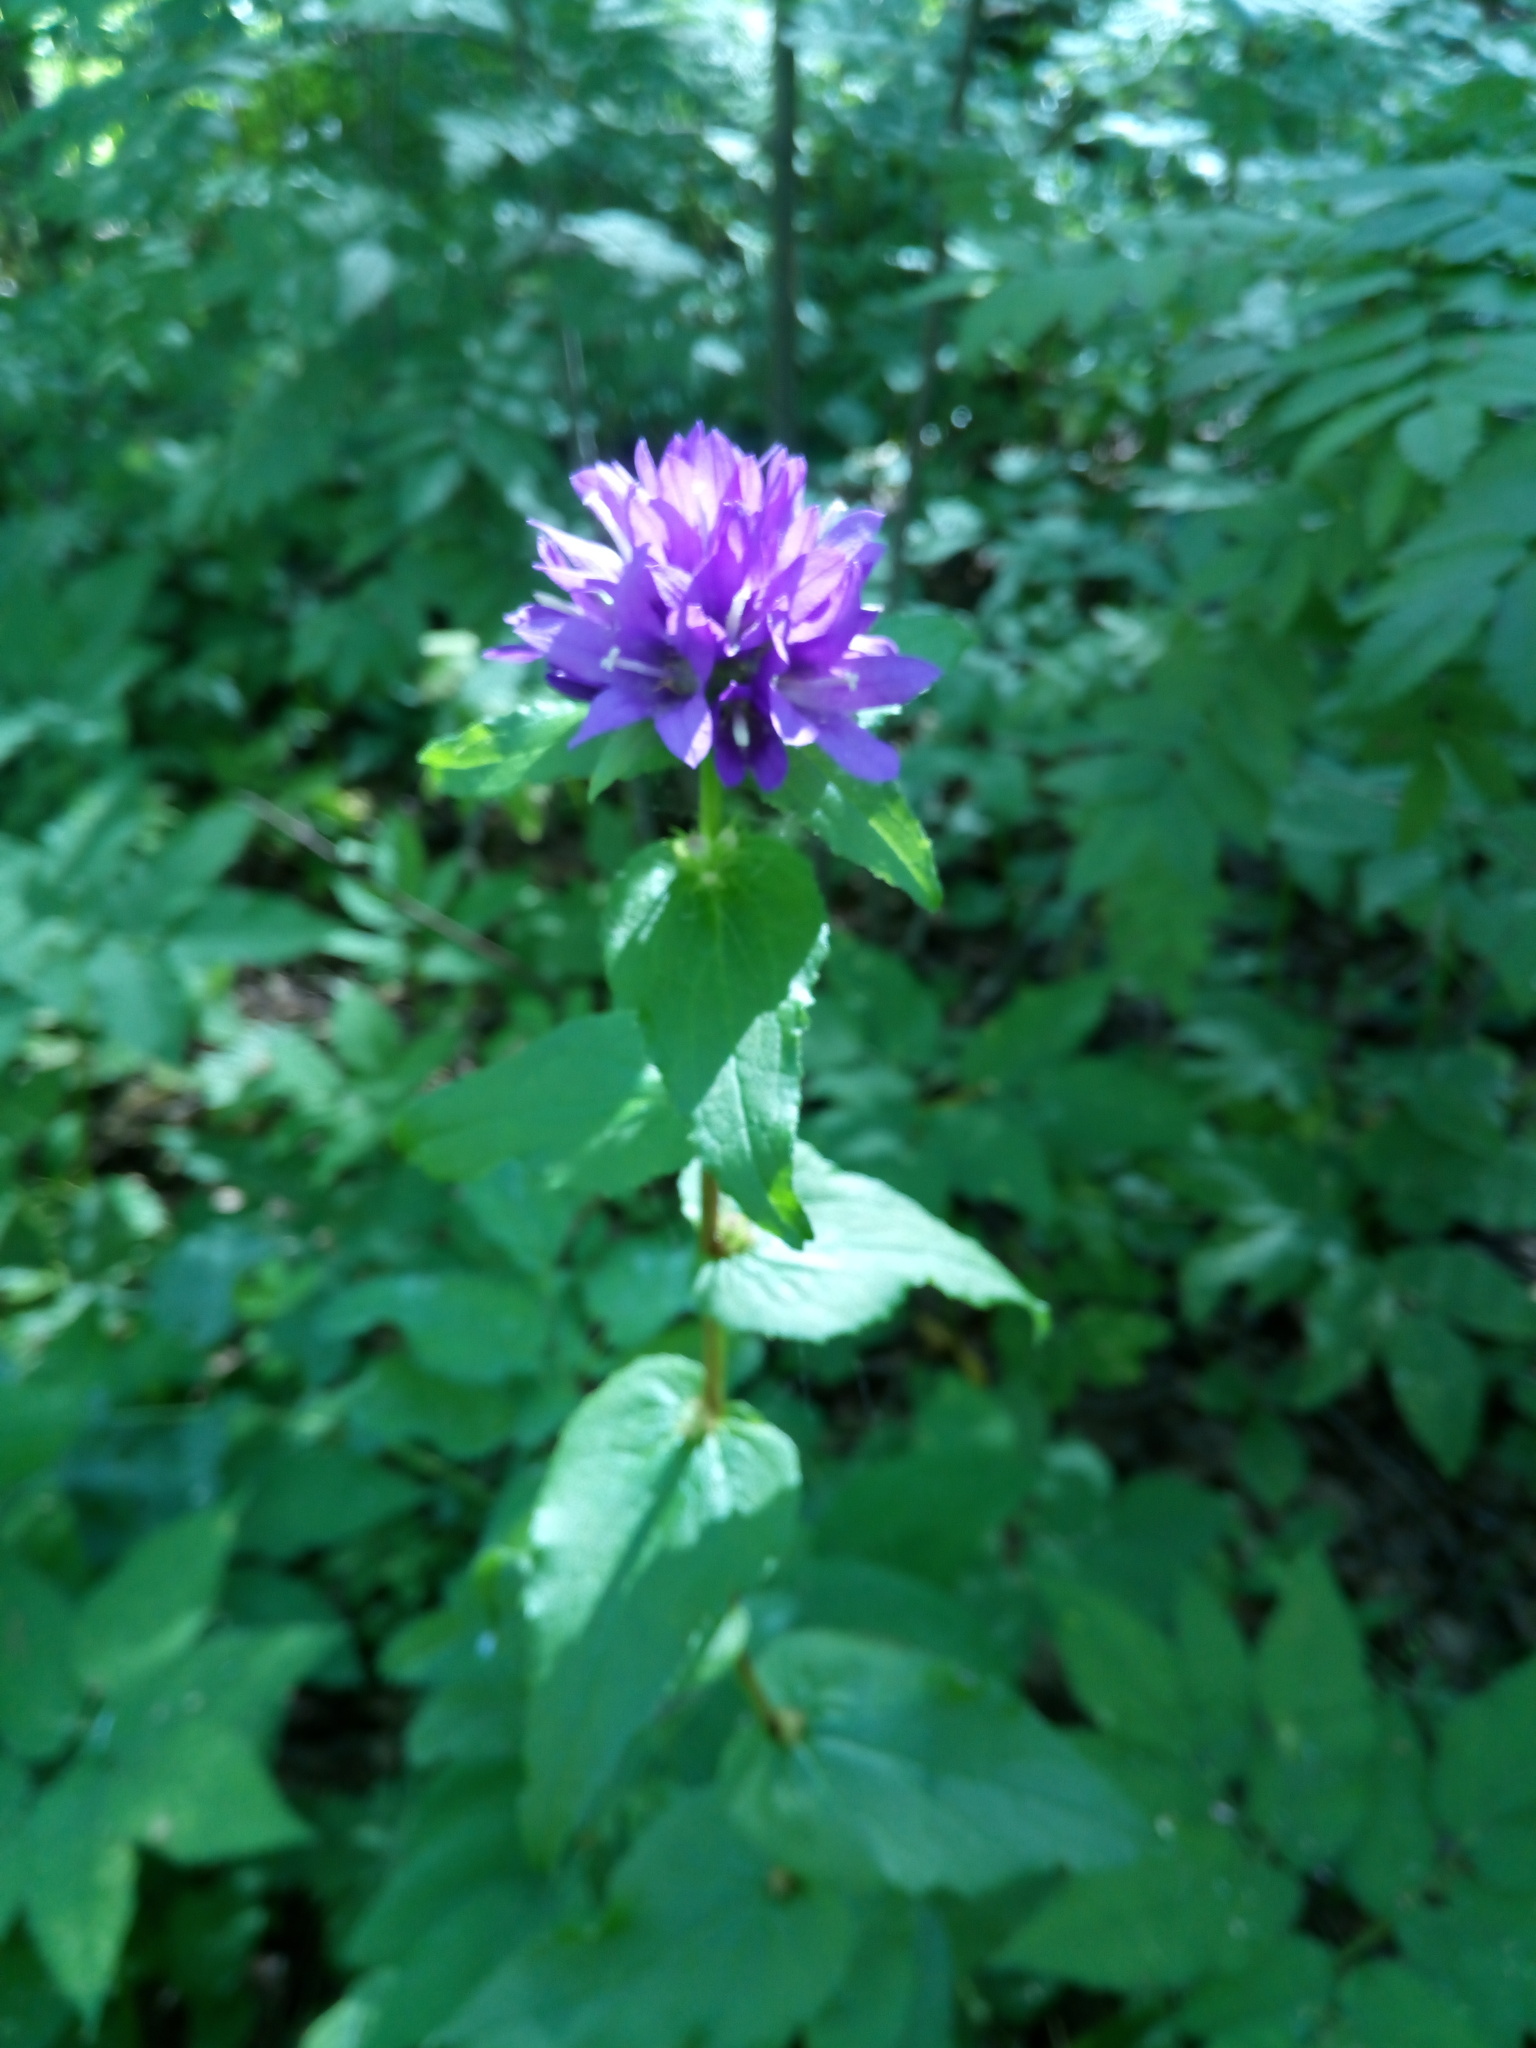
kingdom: Plantae
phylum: Tracheophyta
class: Magnoliopsida
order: Asterales
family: Campanulaceae
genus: Campanula
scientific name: Campanula glomerata
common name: Clustered bellflower
